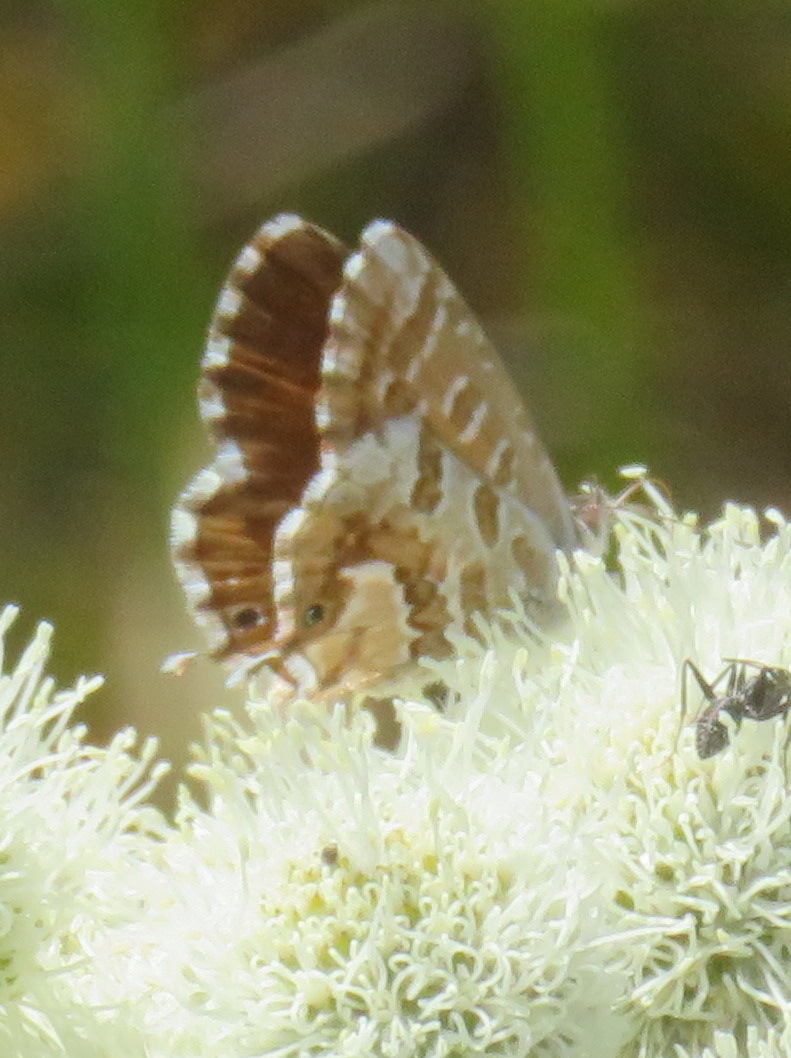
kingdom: Animalia
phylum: Arthropoda
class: Insecta
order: Lepidoptera
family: Lycaenidae
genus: Cacyreus
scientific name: Cacyreus marshalli
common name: Geranium bronze
